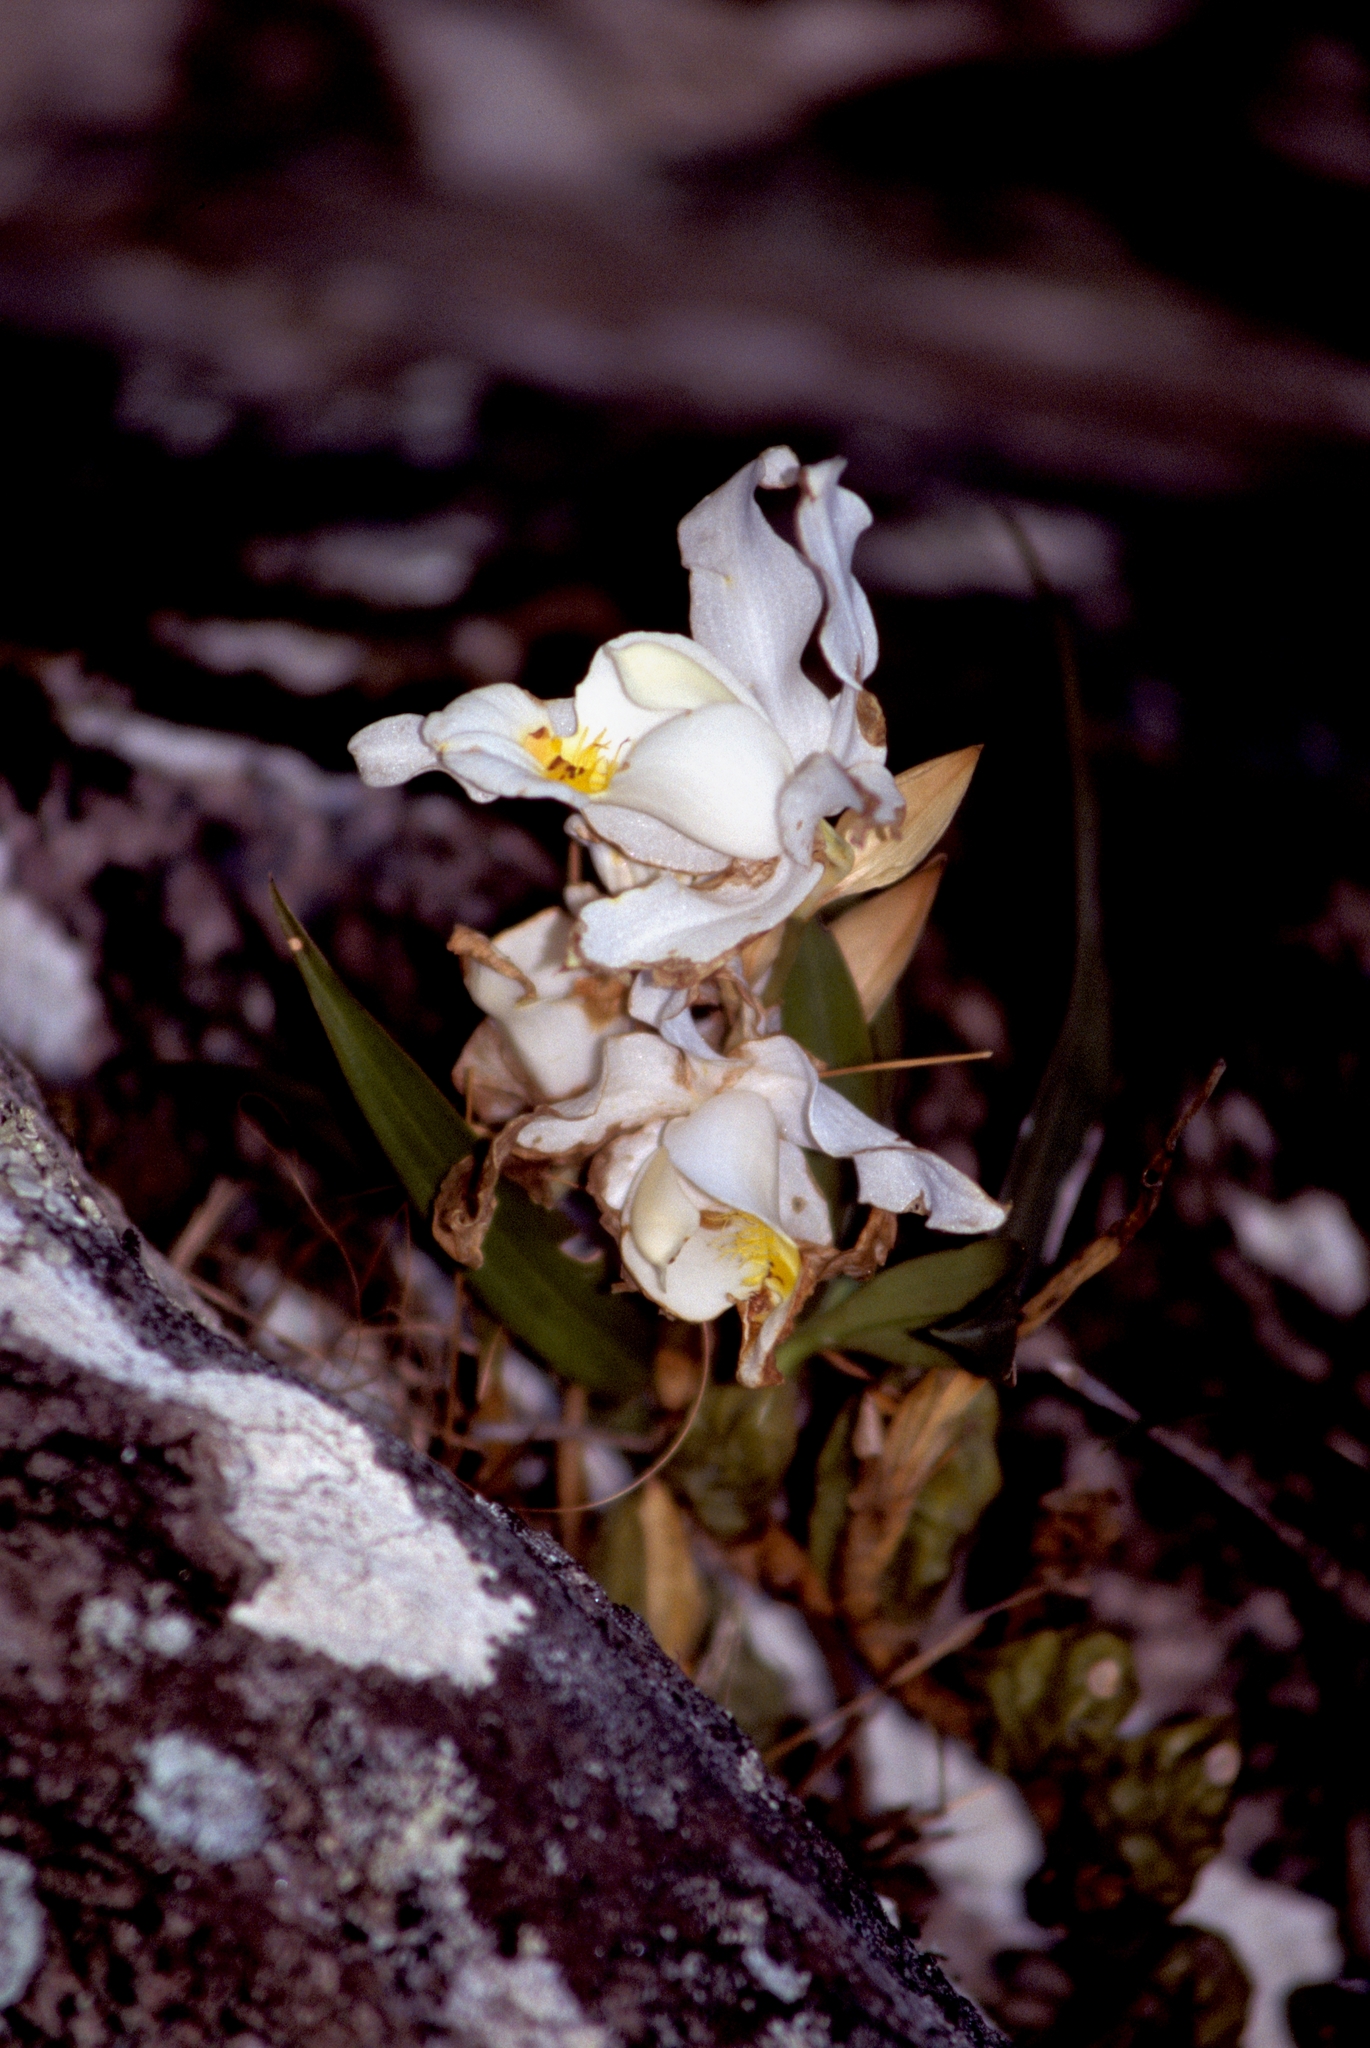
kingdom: Plantae
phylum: Tracheophyta
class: Liliopsida
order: Asparagales
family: Orchidaceae
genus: Coelogyne
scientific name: Coelogyne cristata
